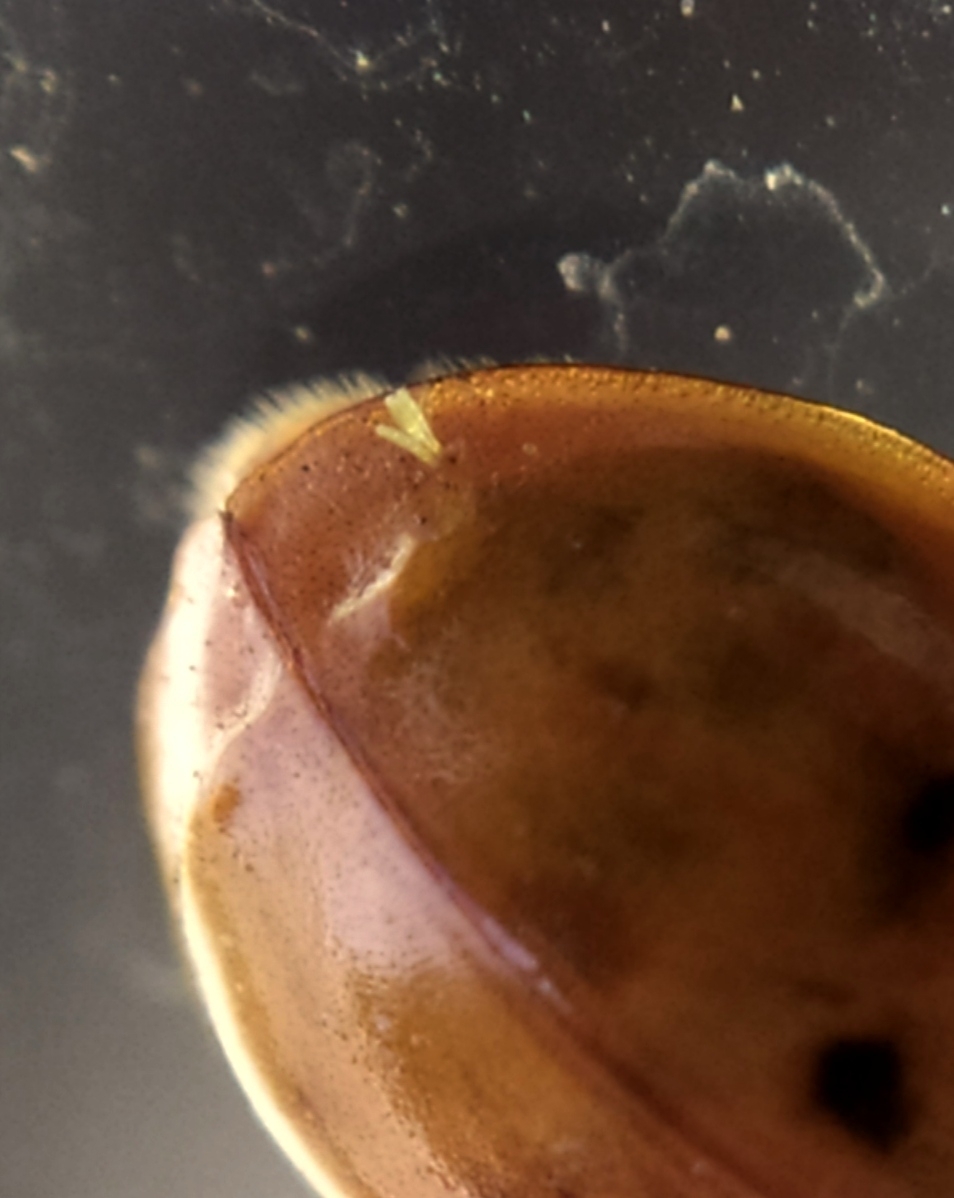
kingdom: Fungi
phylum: Ascomycota
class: Laboulbeniomycetes
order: Laboulbeniales
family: Laboulbeniaceae
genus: Hesperomyces
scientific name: Hesperomyces harmoniae
